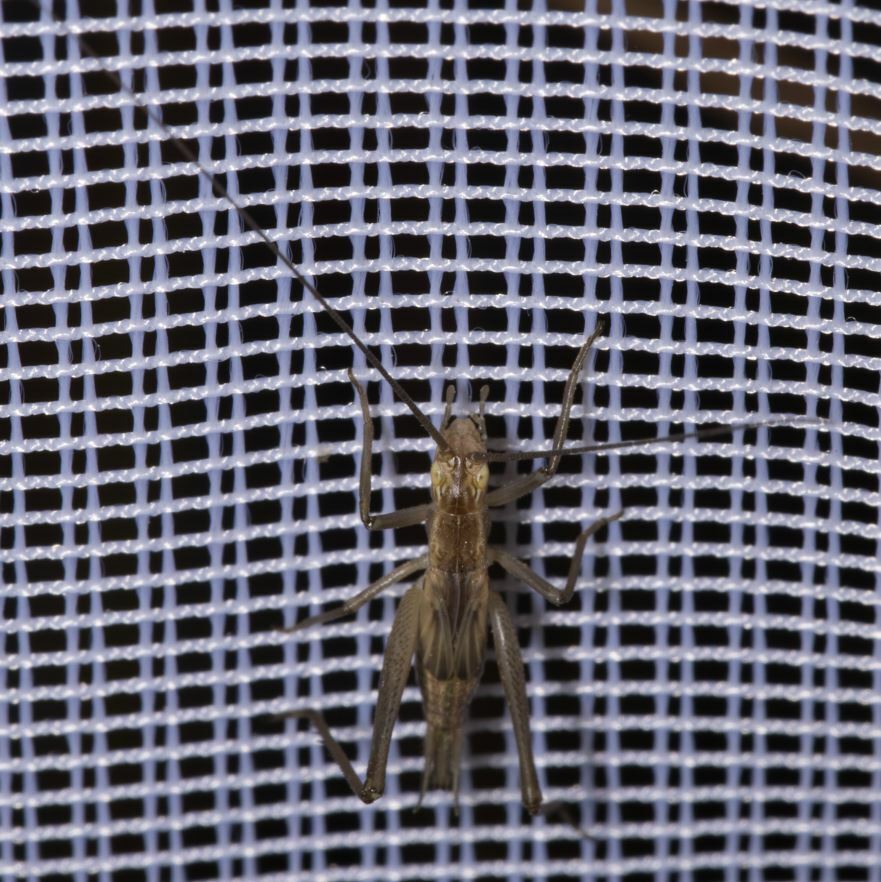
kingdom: Animalia
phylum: Arthropoda
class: Insecta
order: Orthoptera
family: Gryllidae
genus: Oecanthus
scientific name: Oecanthus pellucens
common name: Tree-cricket
